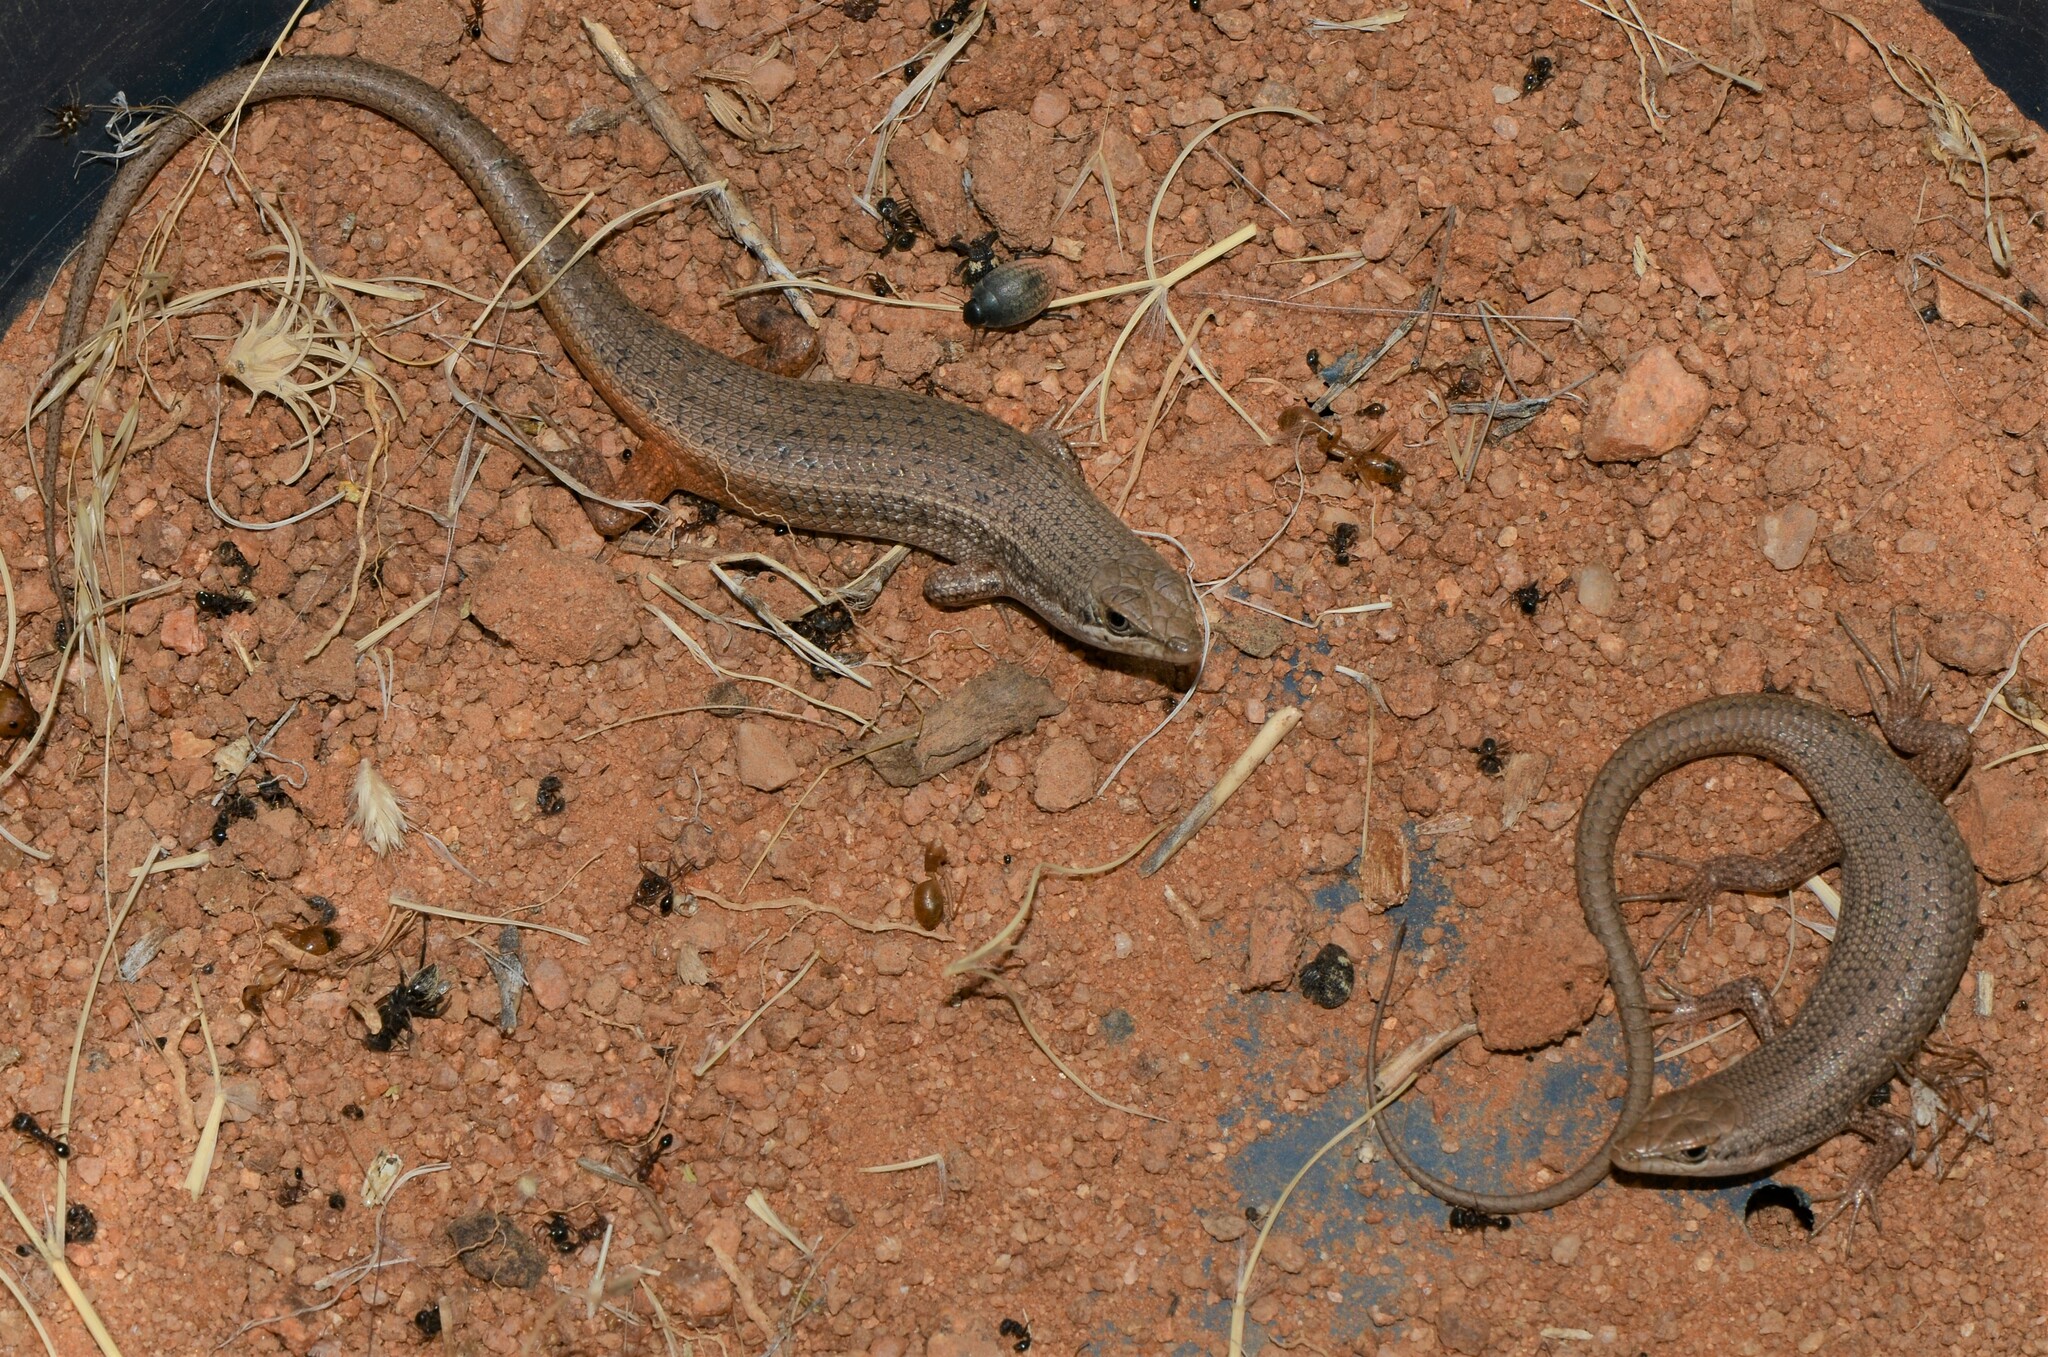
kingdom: Animalia
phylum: Chordata
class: Squamata
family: Scincidae
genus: Trachylepis
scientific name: Trachylepis variegata
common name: Variegated skink
